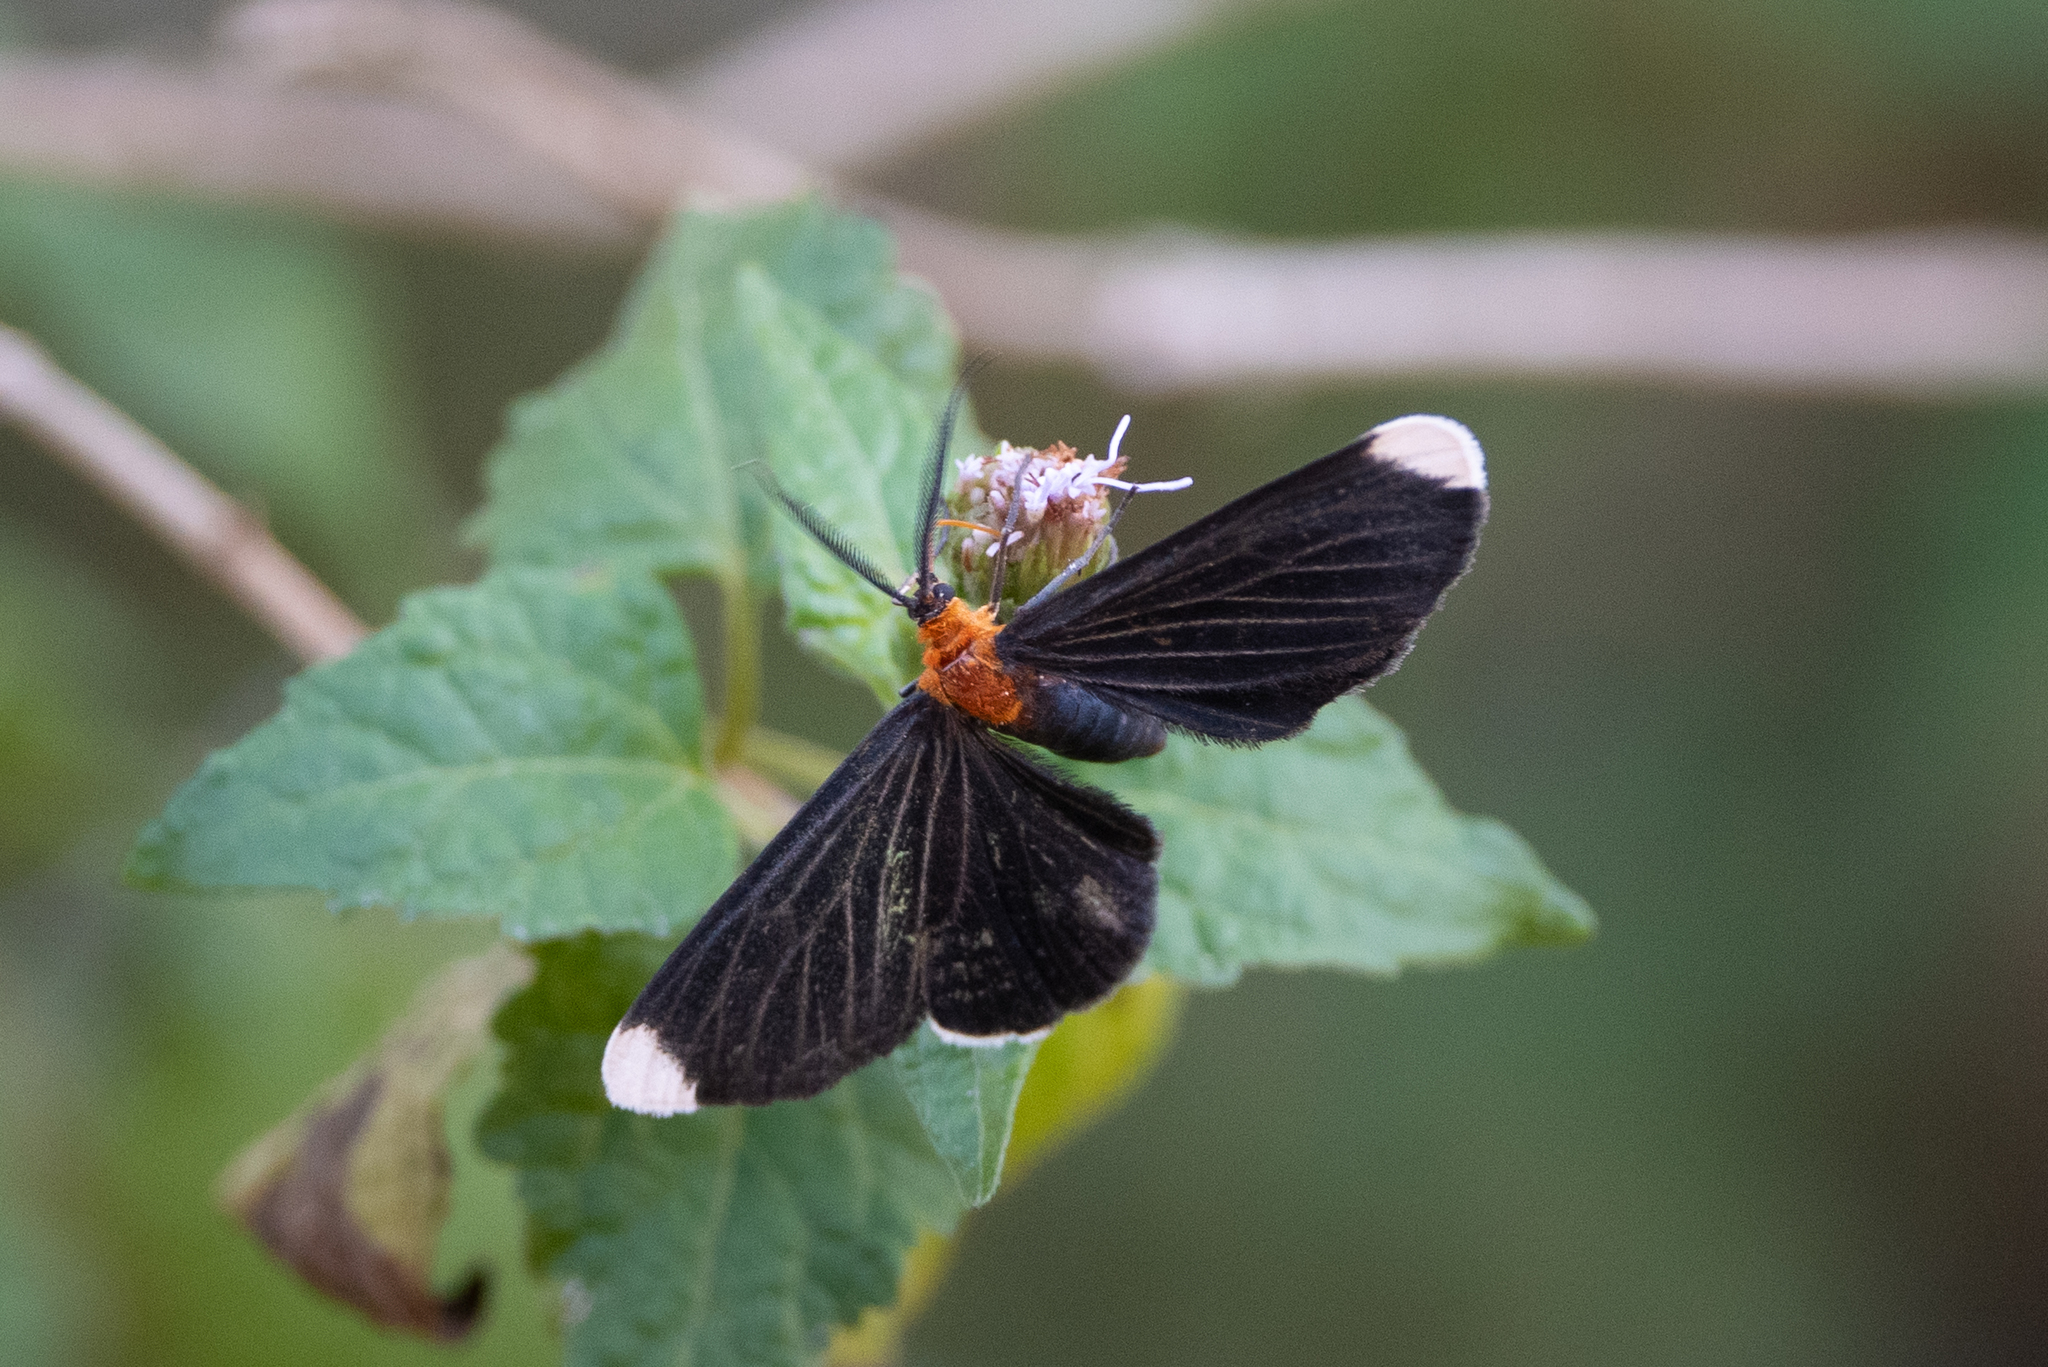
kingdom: Animalia
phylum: Arthropoda
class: Insecta
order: Lepidoptera
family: Geometridae
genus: Melanchroia
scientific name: Melanchroia chephise
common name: White-tipped black
